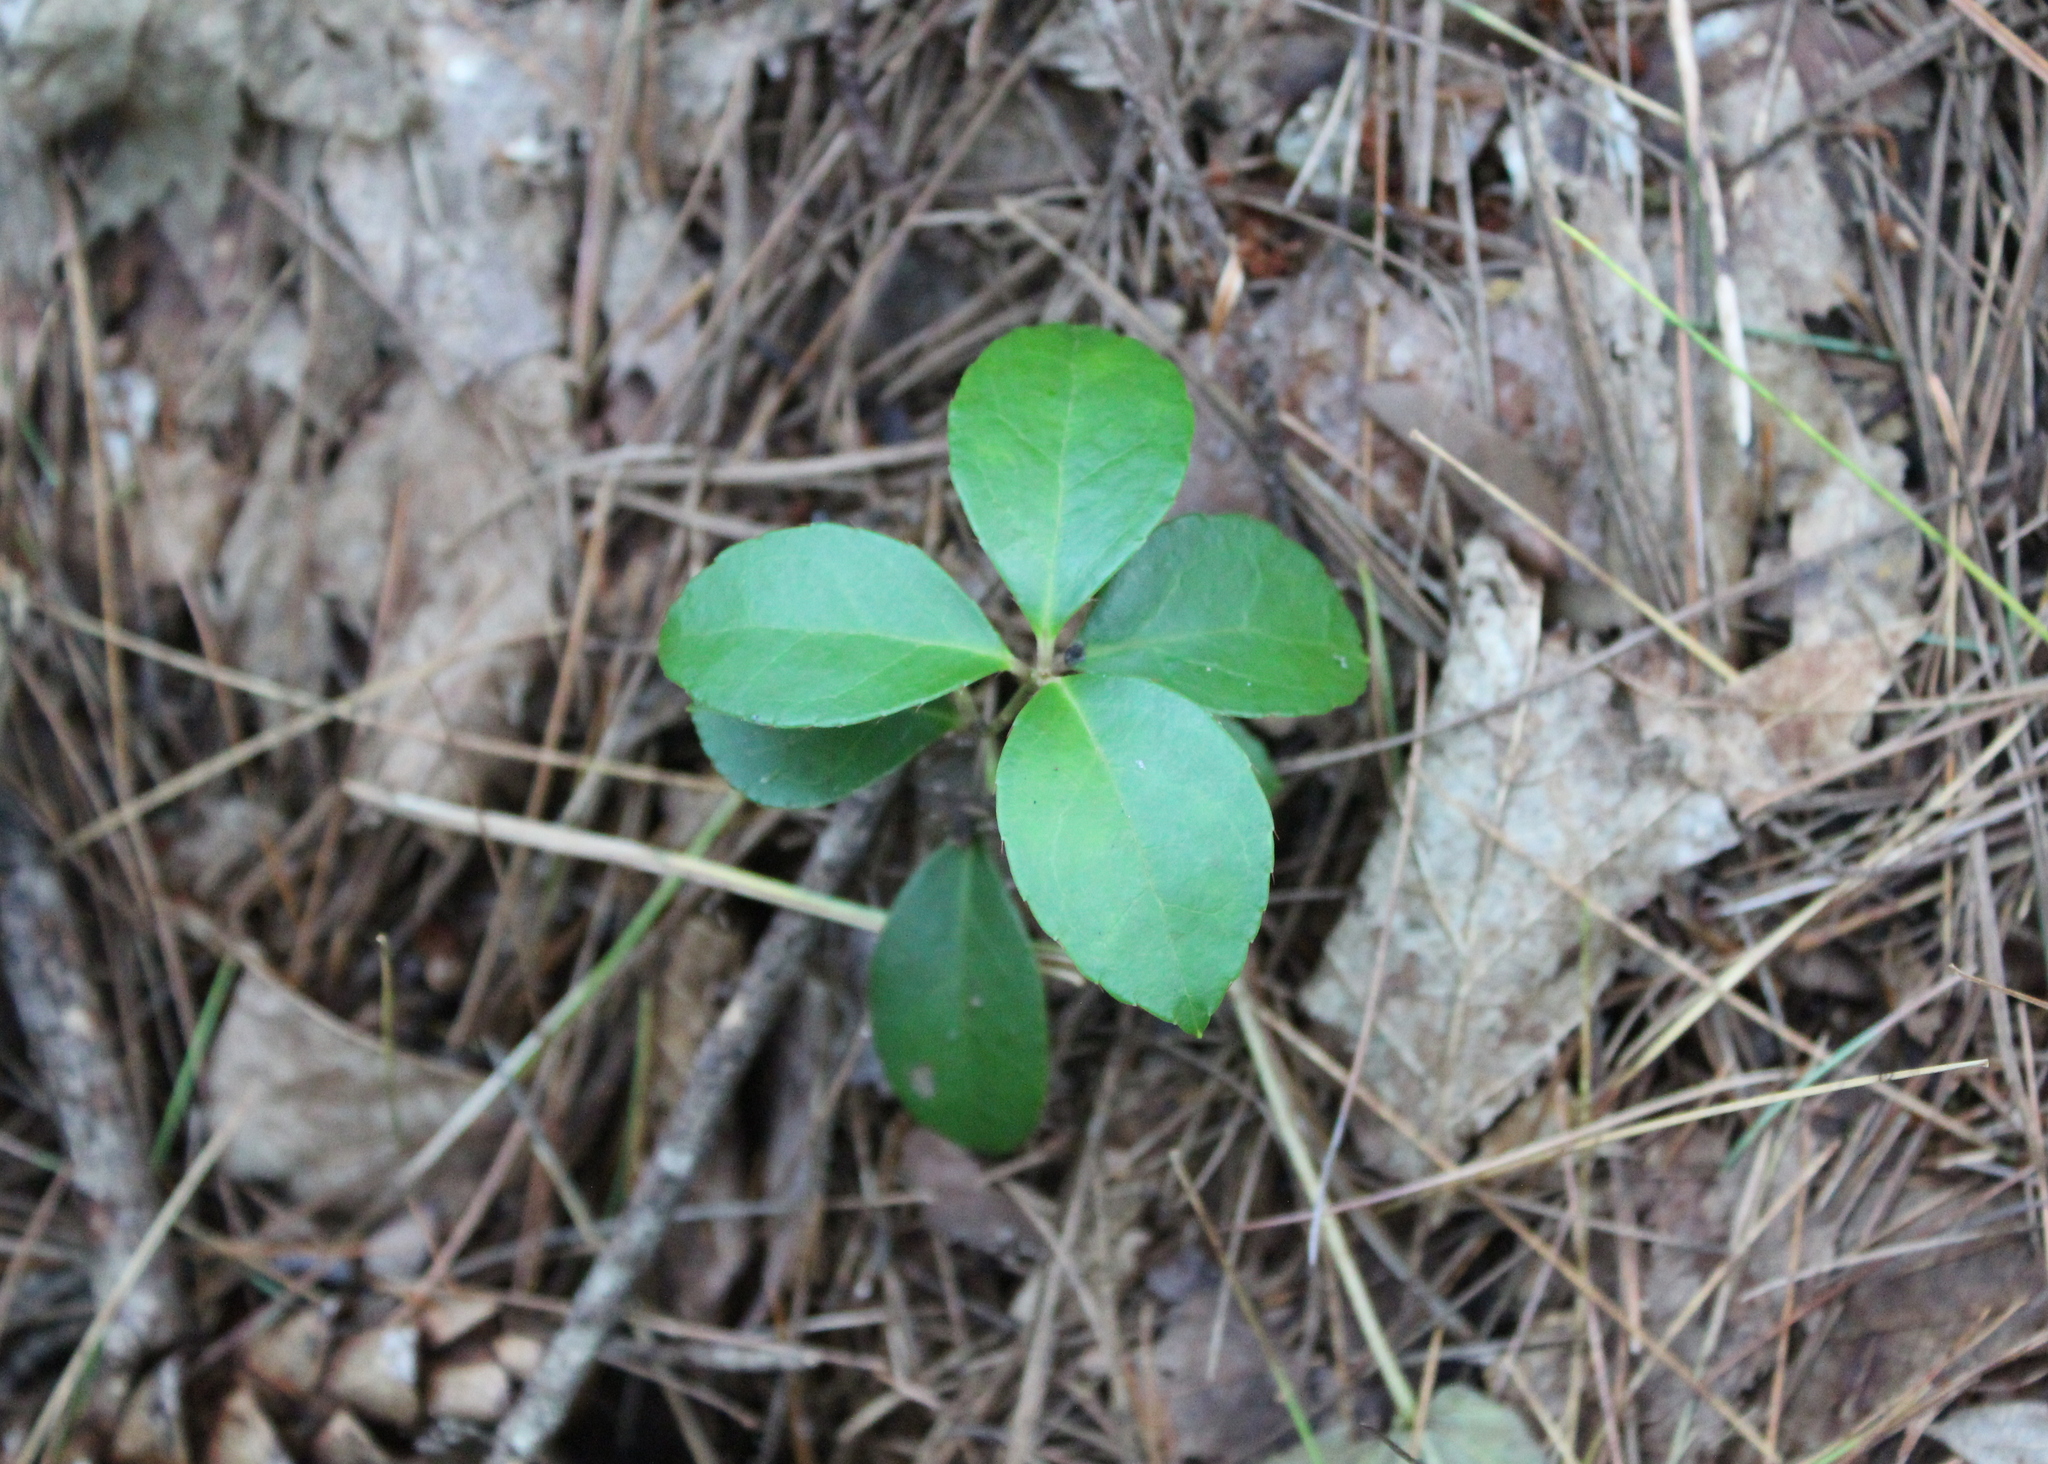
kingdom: Plantae
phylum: Tracheophyta
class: Magnoliopsida
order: Ericales
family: Ericaceae
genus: Gaultheria
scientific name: Gaultheria procumbens
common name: Checkerberry
